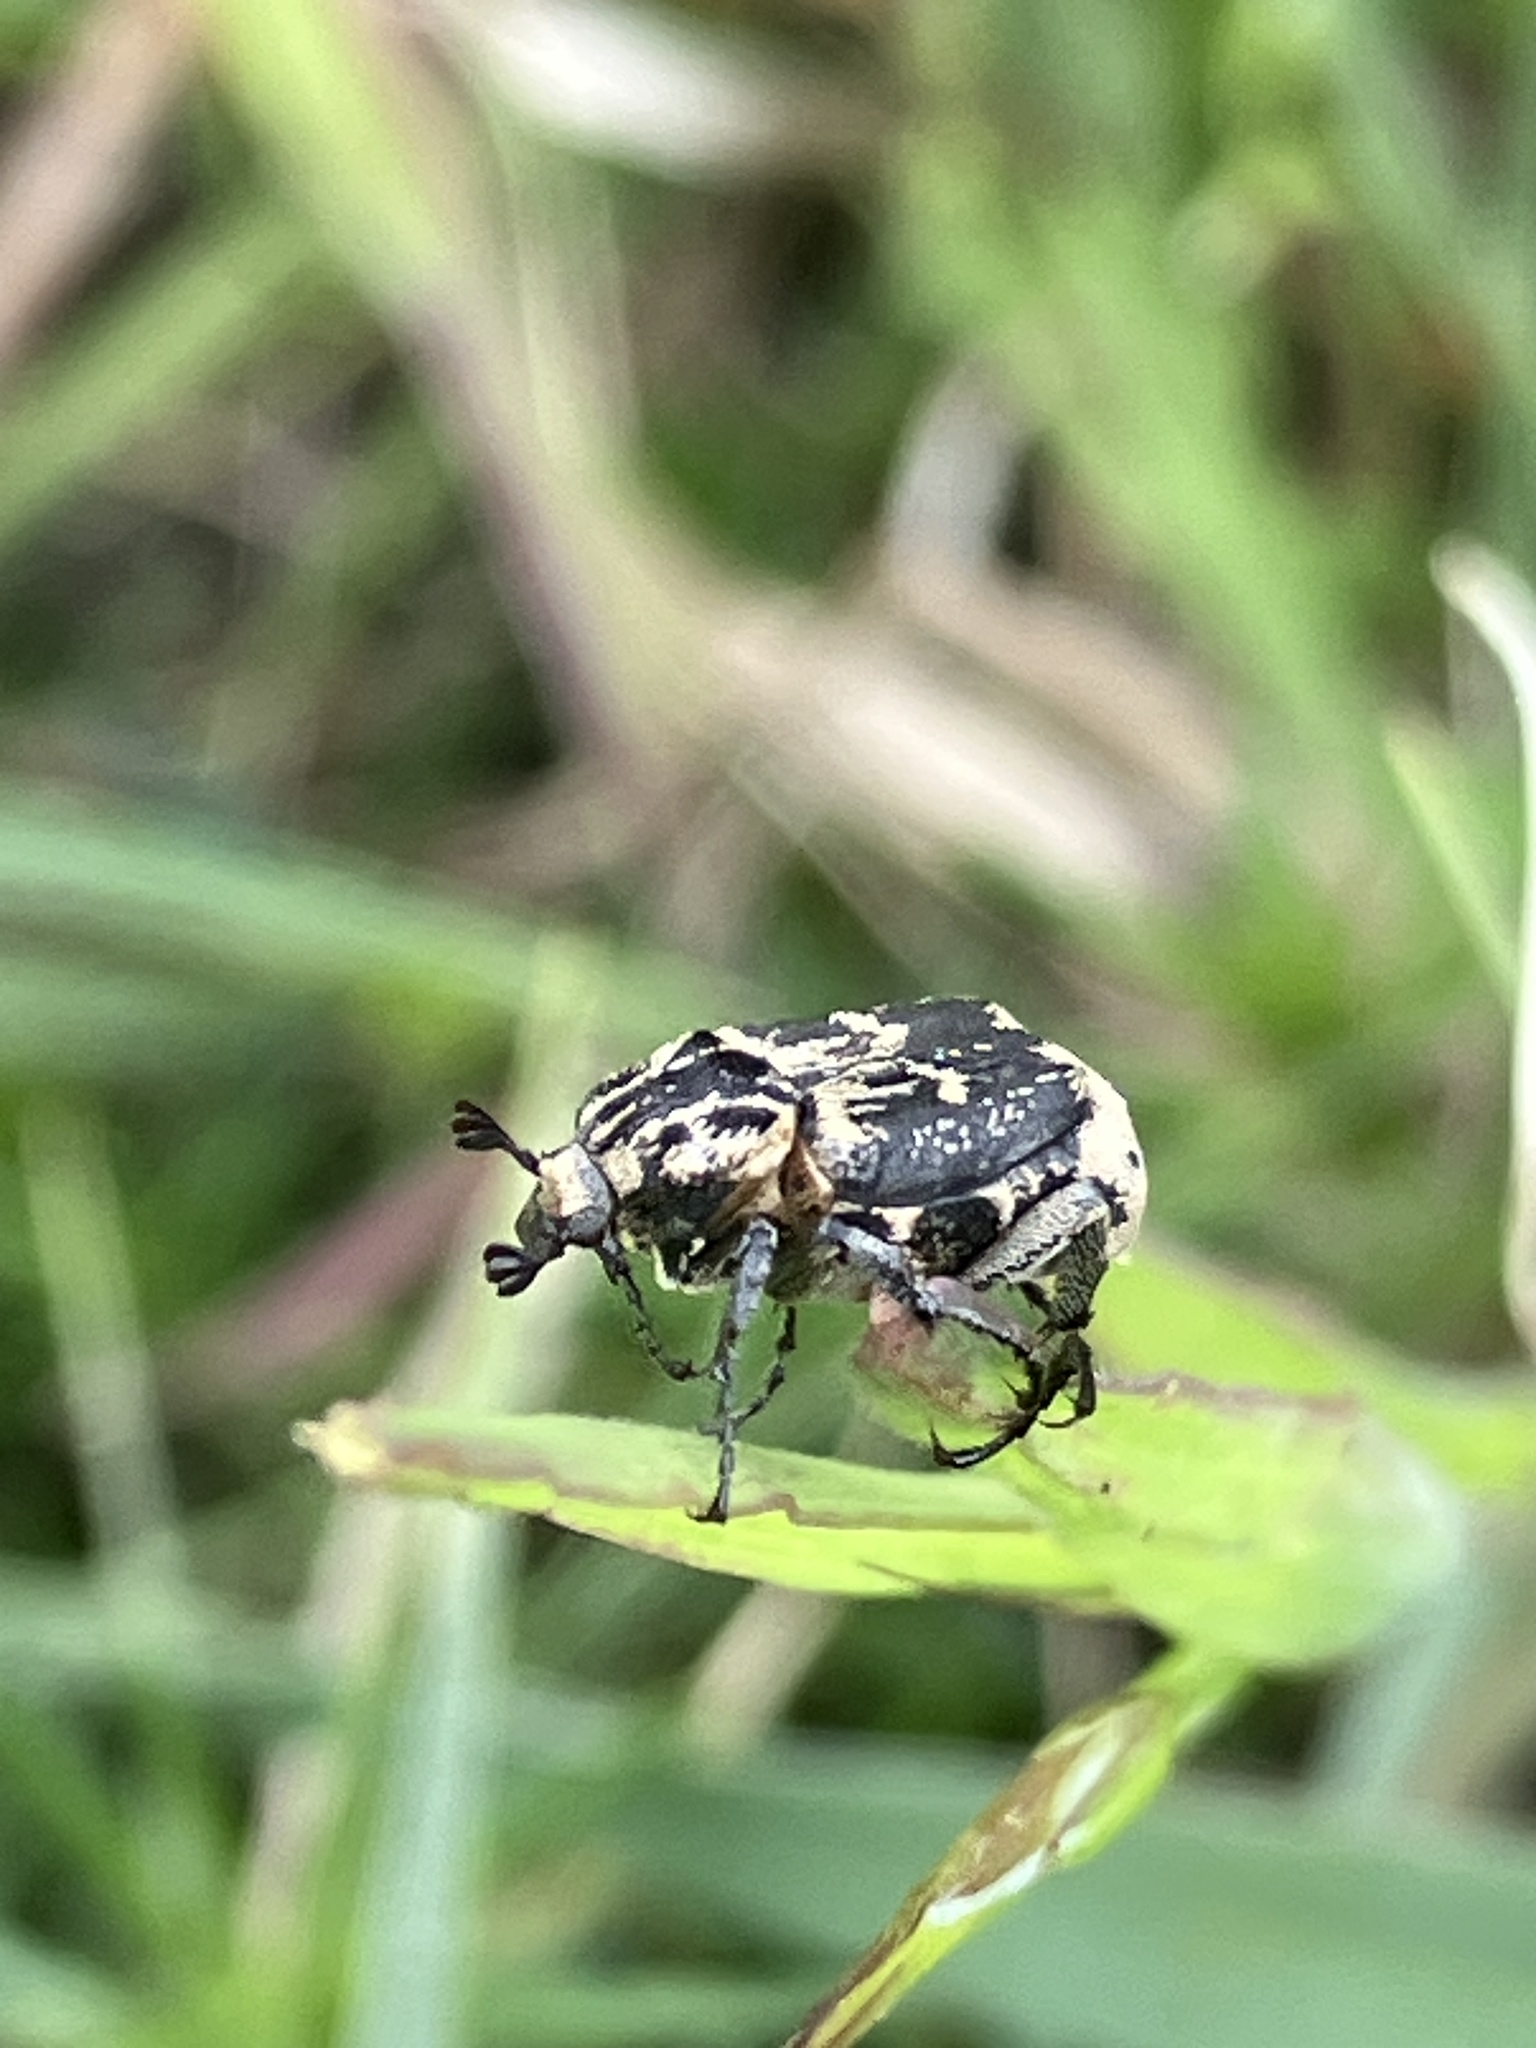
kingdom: Animalia
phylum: Arthropoda
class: Insecta
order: Coleoptera
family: Scarabaeidae
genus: Valgus
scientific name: Valgus hemipterus
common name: Bug flower chafer
